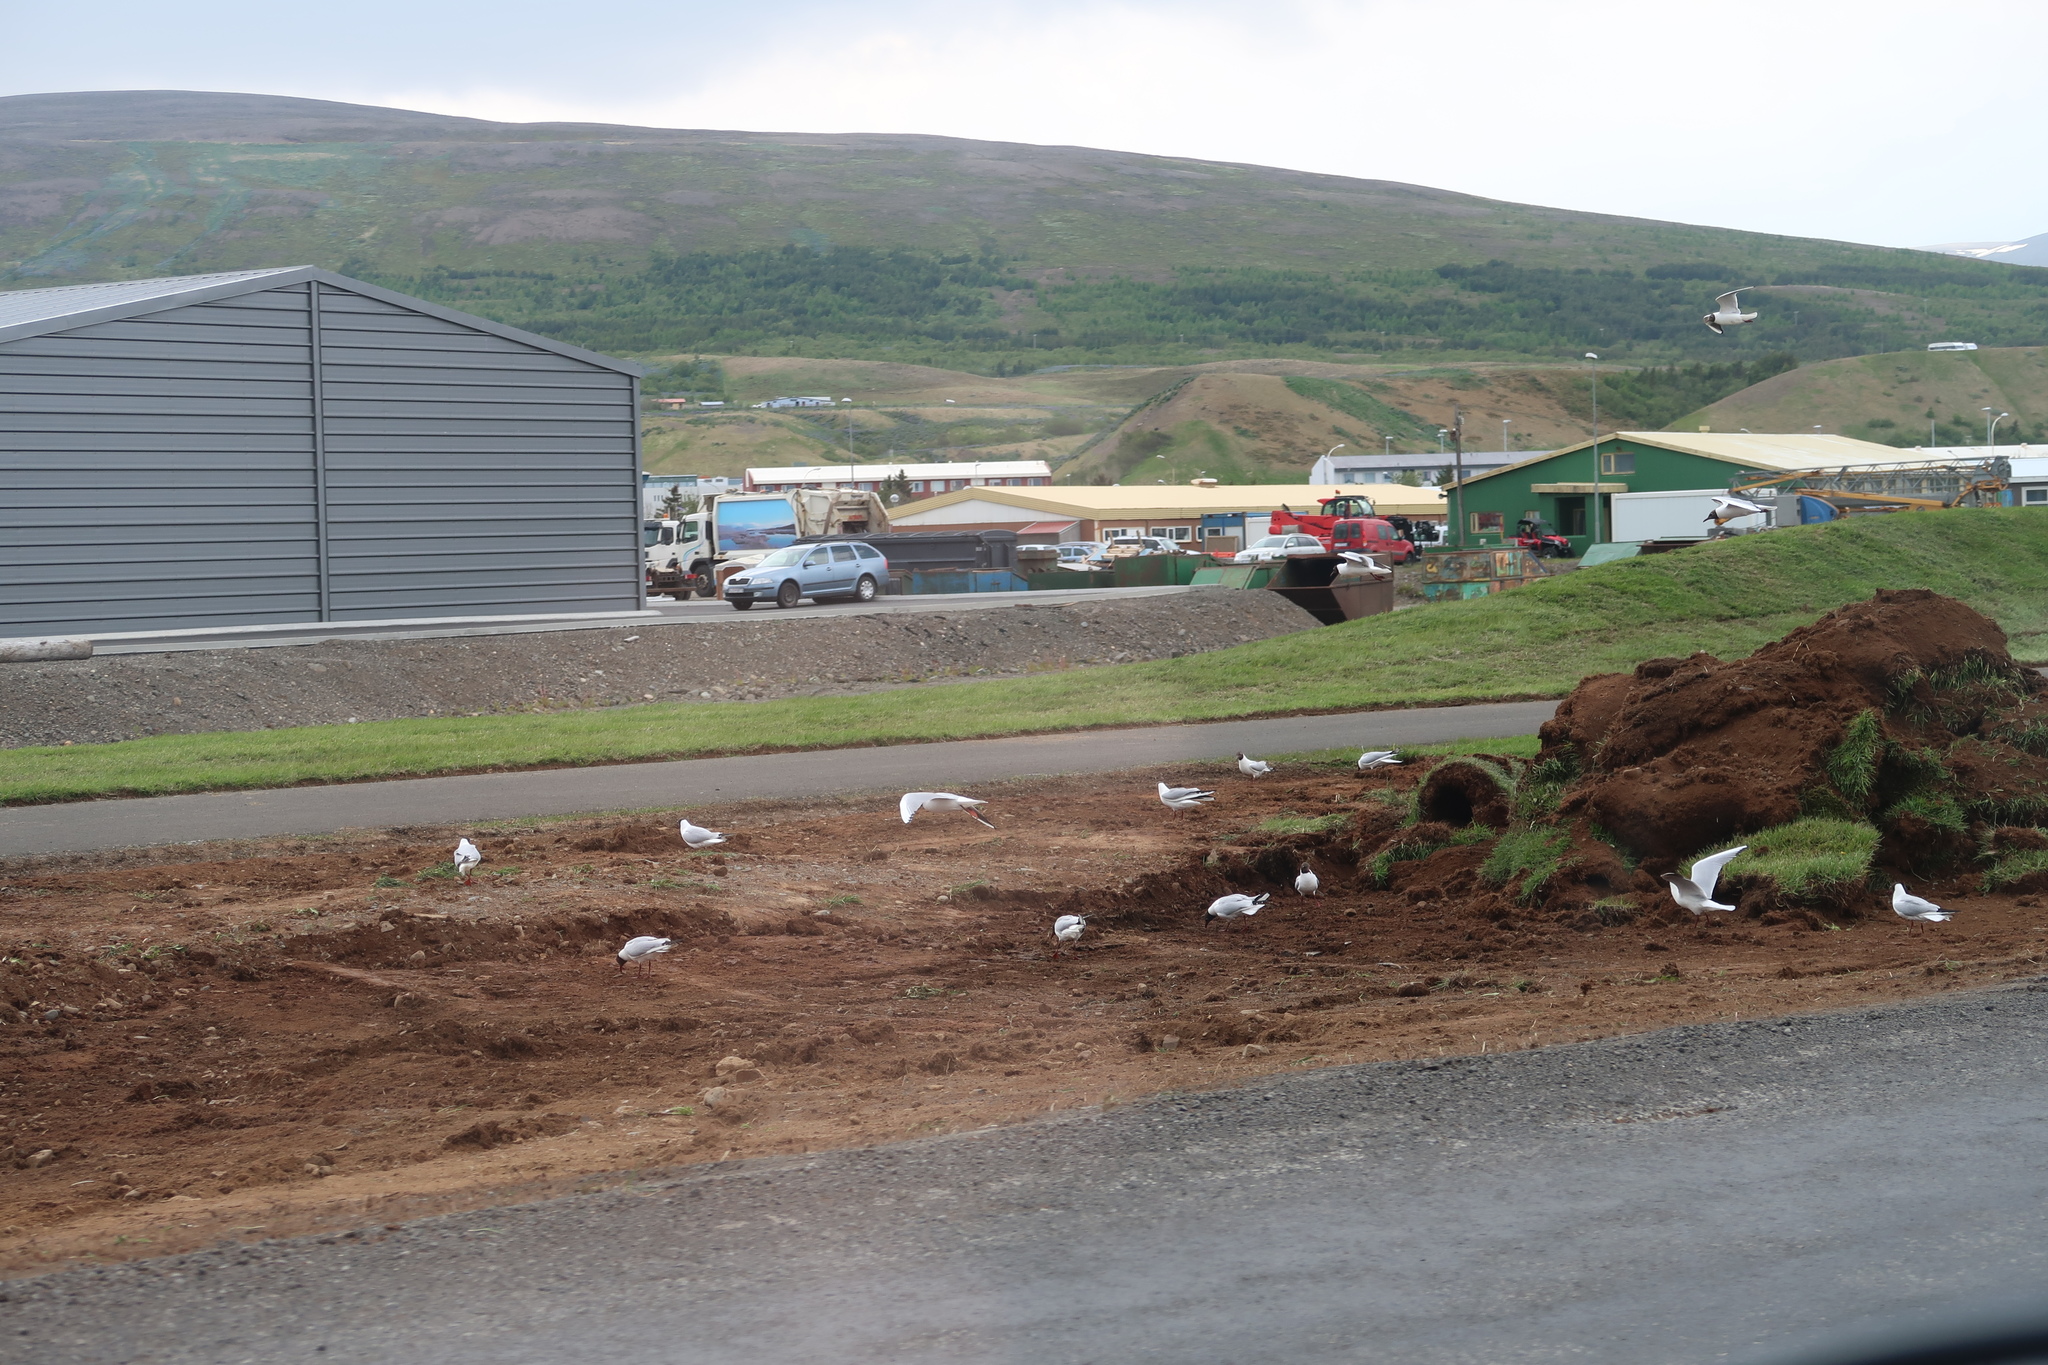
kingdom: Animalia
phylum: Chordata
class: Aves
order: Charadriiformes
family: Laridae
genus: Chroicocephalus
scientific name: Chroicocephalus ridibundus
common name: Black-headed gull
